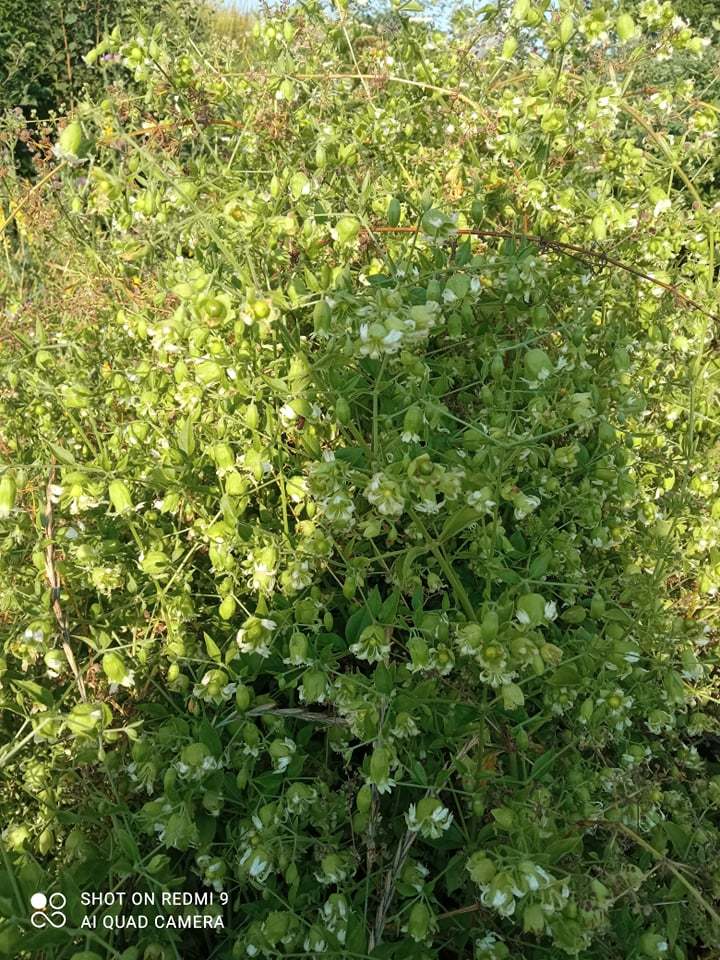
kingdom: Plantae
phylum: Tracheophyta
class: Magnoliopsida
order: Caryophyllales
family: Caryophyllaceae
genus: Silene
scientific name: Silene baccifera
